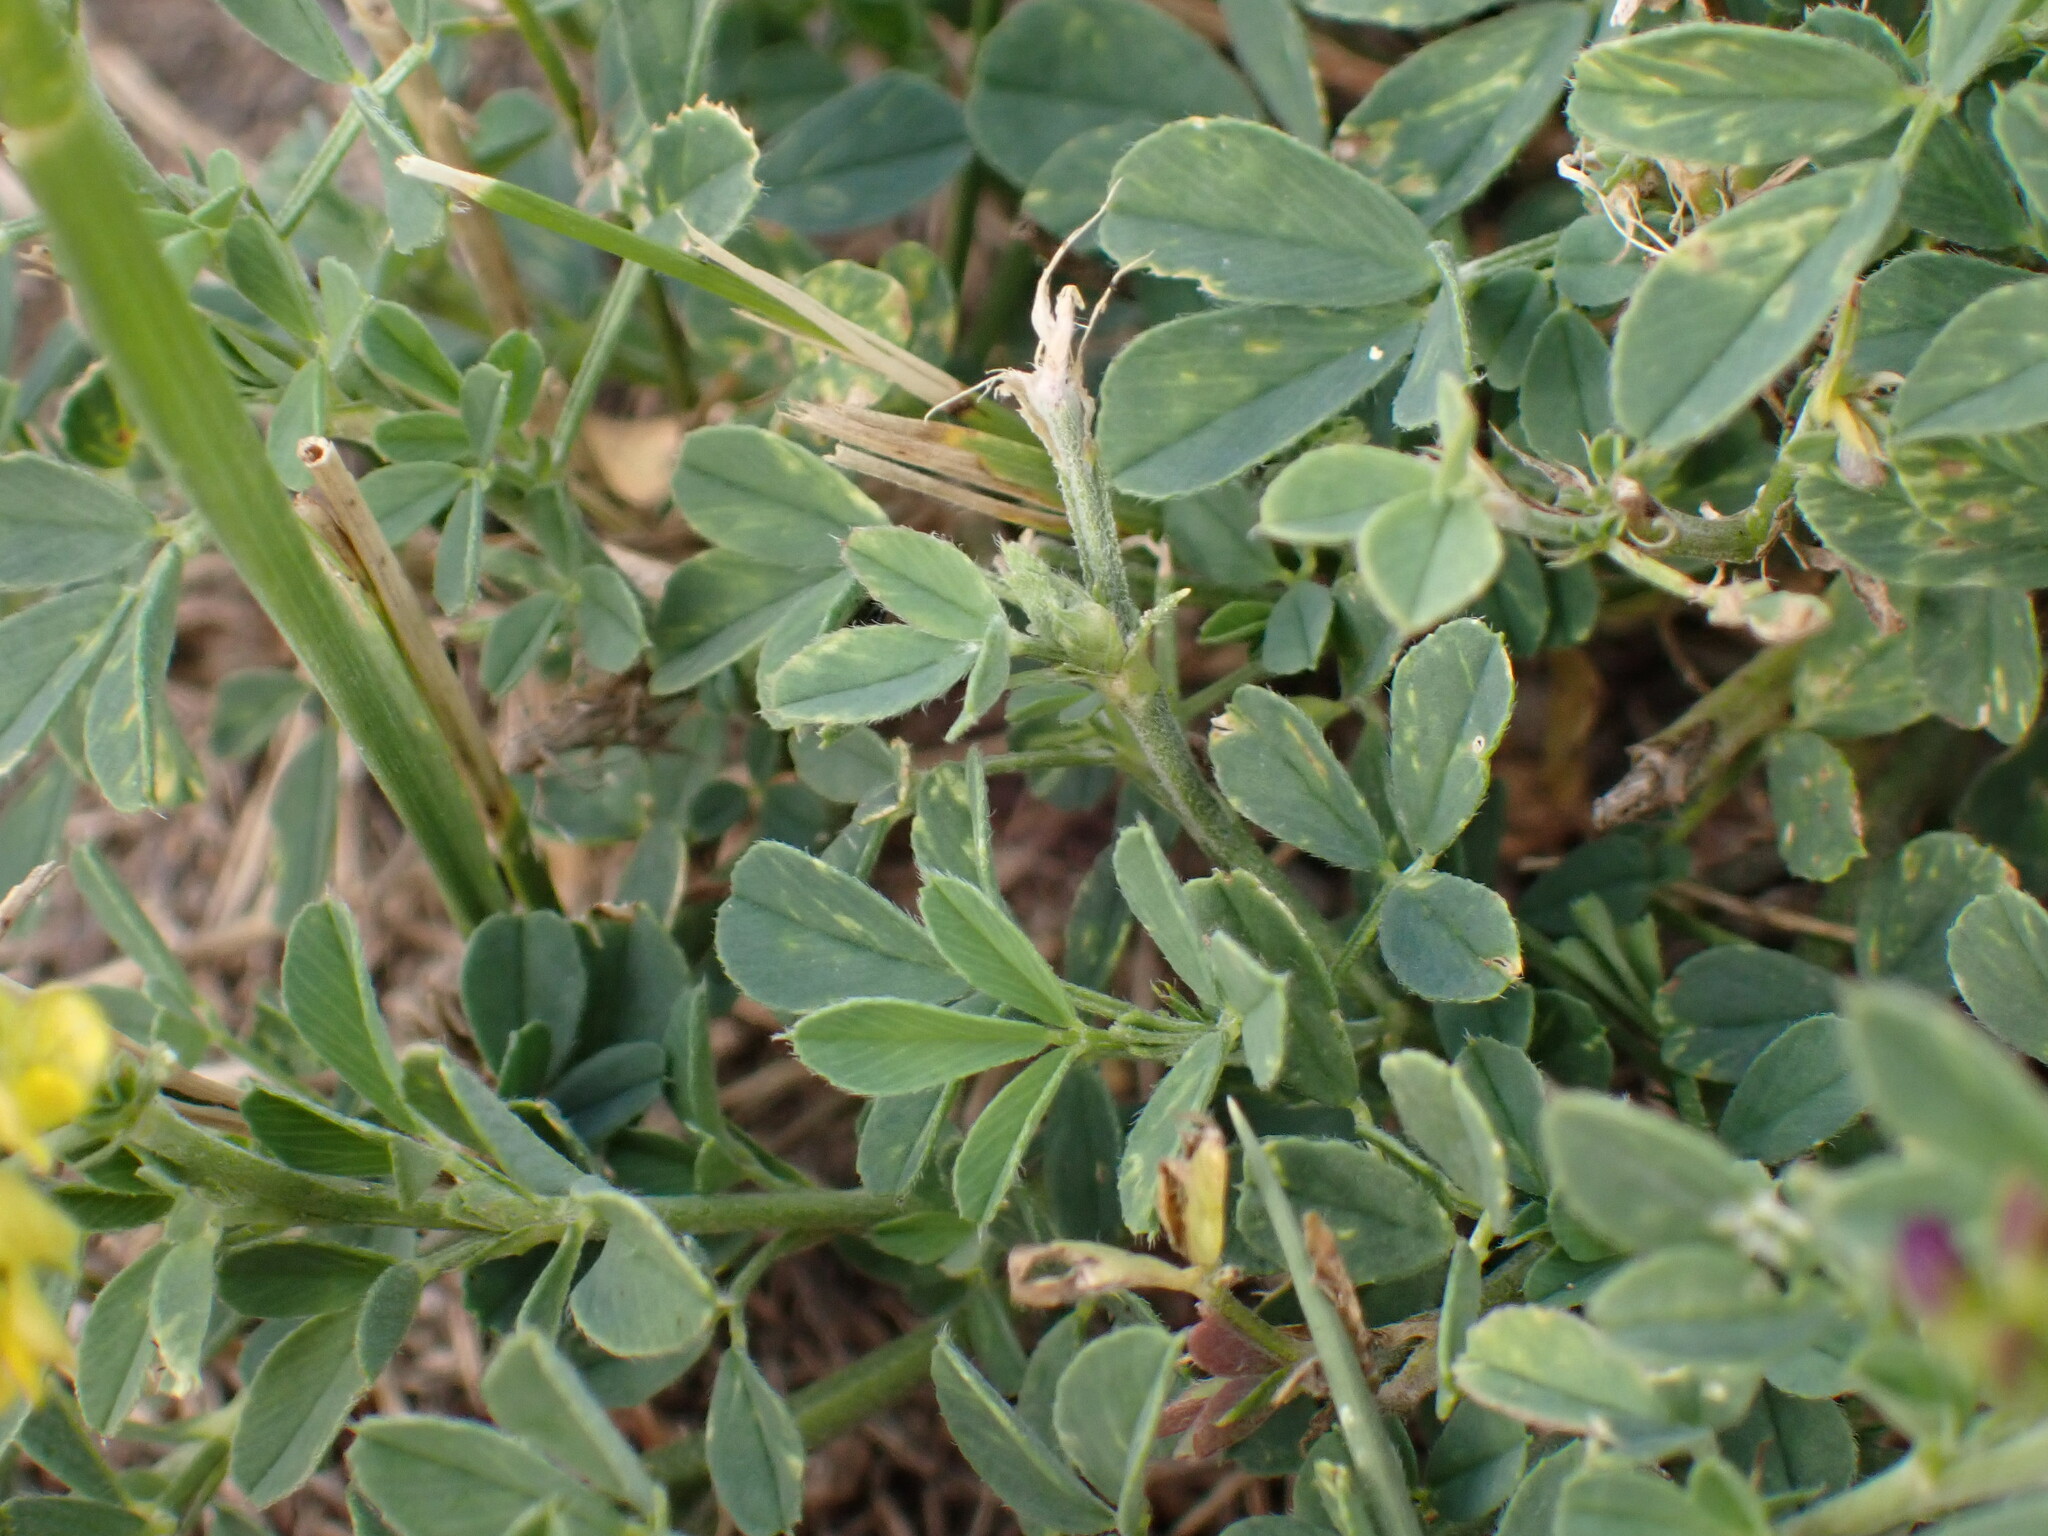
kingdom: Plantae
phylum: Tracheophyta
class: Magnoliopsida
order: Fabales
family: Fabaceae
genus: Medicago
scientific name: Medicago varia
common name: Sand lucerne
